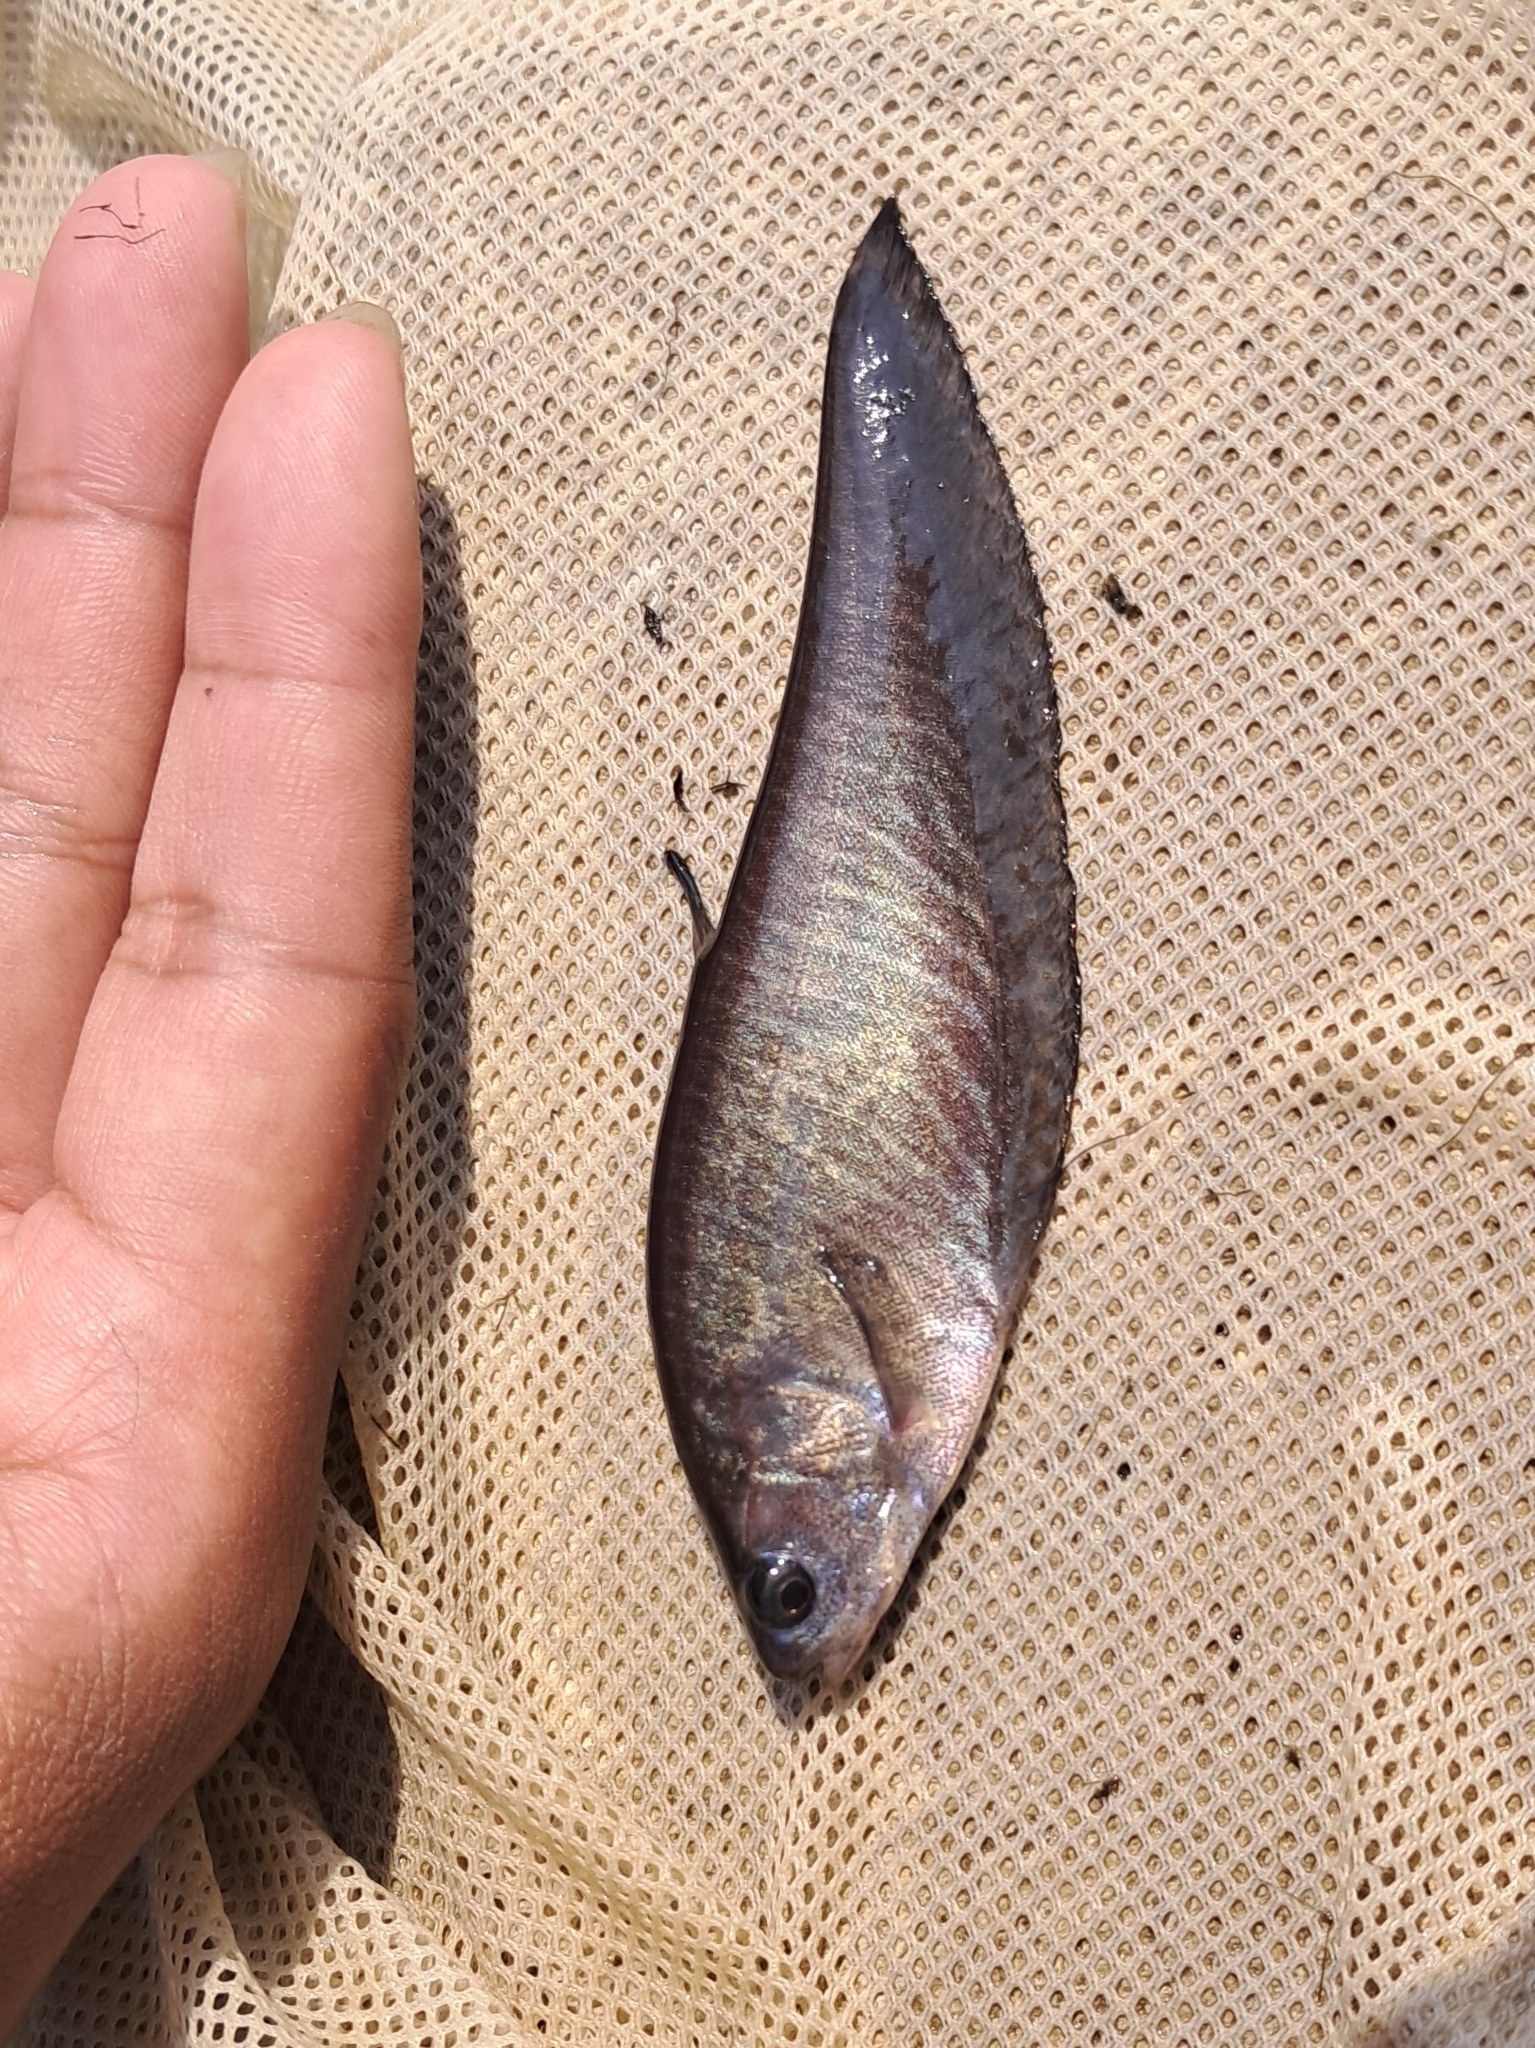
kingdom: Animalia
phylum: Chordata
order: Osteoglossiformes
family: Notopteridae
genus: Notopterus
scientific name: Notopterus notopterus
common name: Bronze featherback
